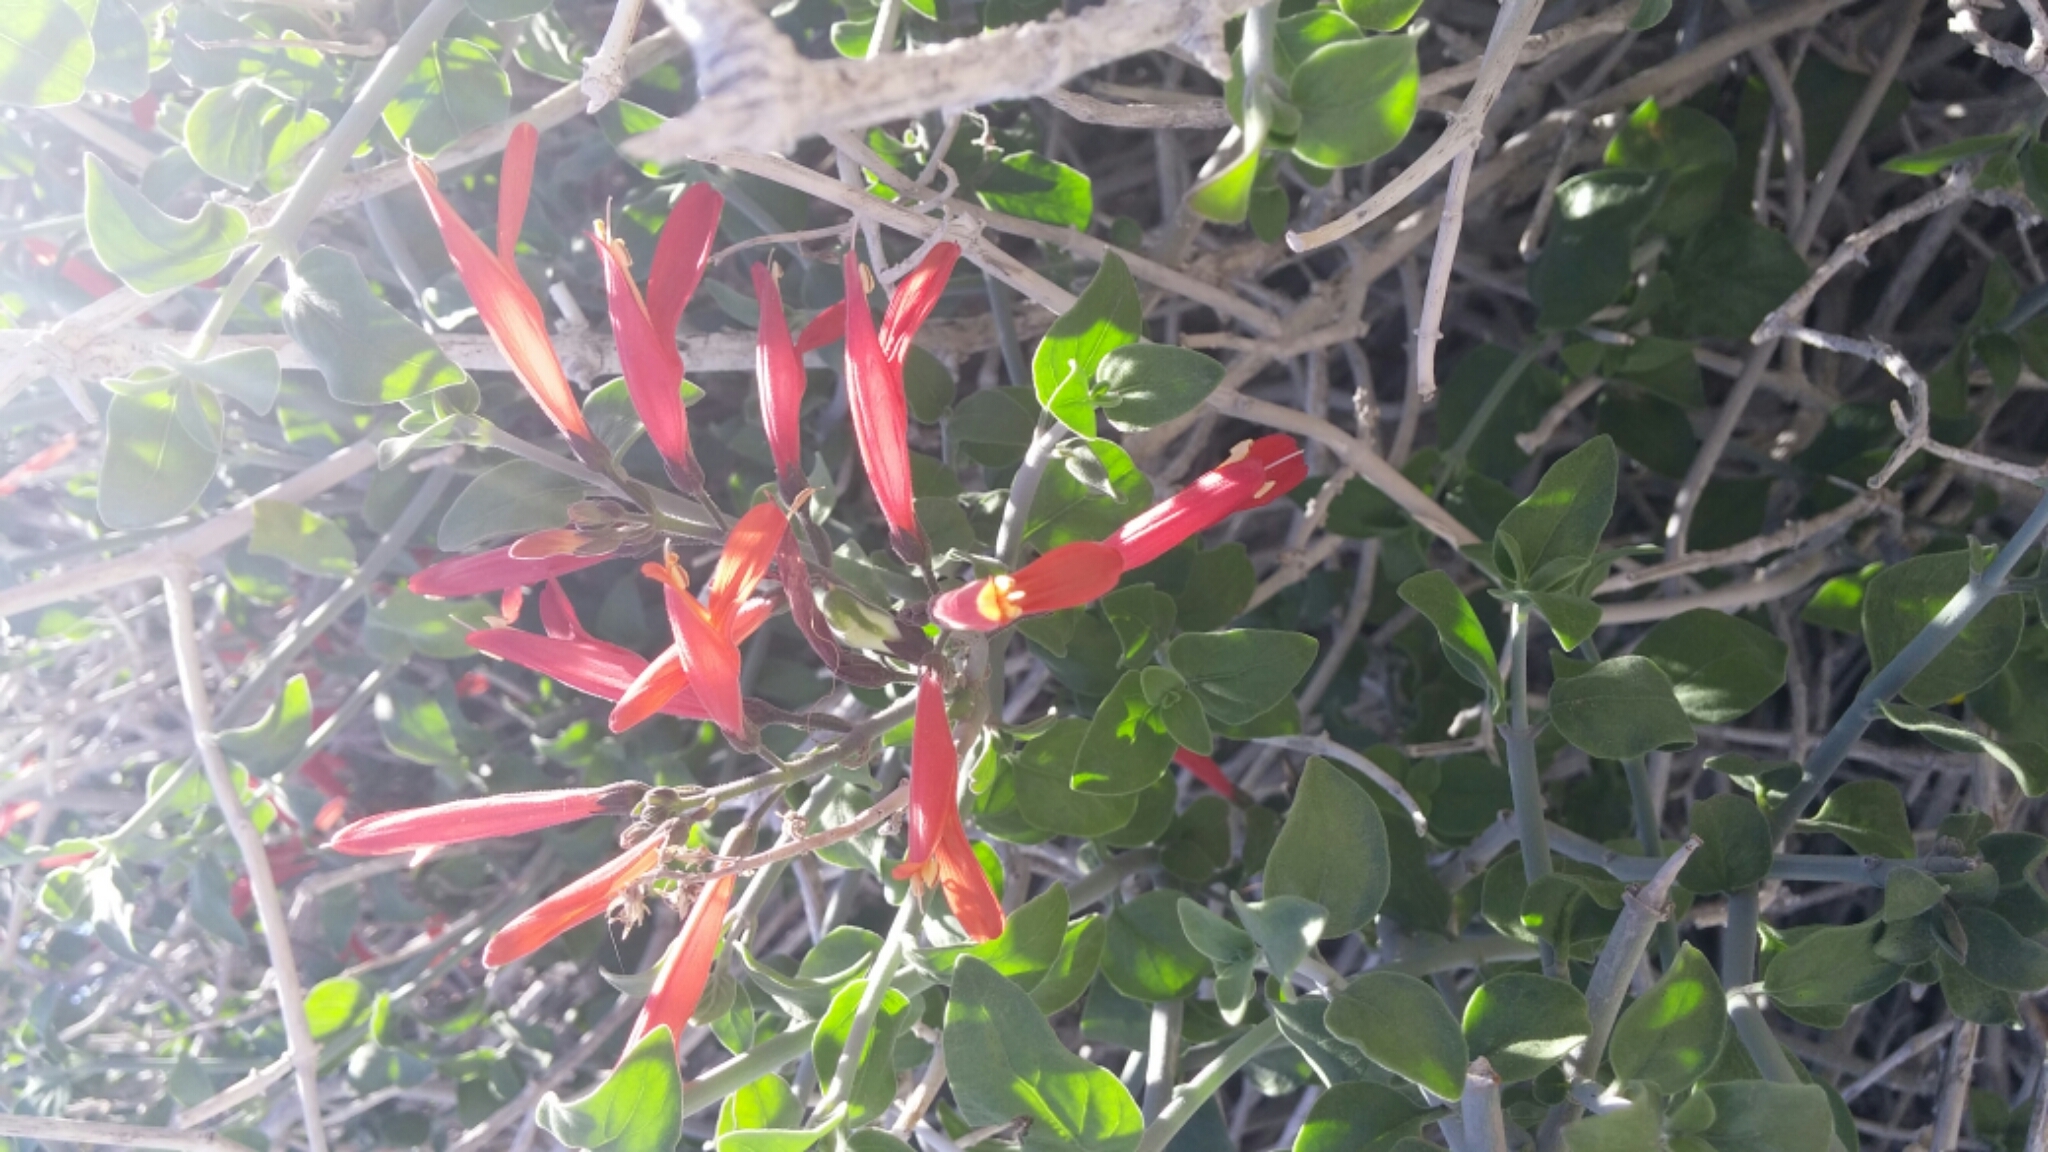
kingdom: Plantae
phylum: Tracheophyta
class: Magnoliopsida
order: Lamiales
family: Acanthaceae
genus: Justicia
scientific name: Justicia californica
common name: Chuparosa-honeysuckle
